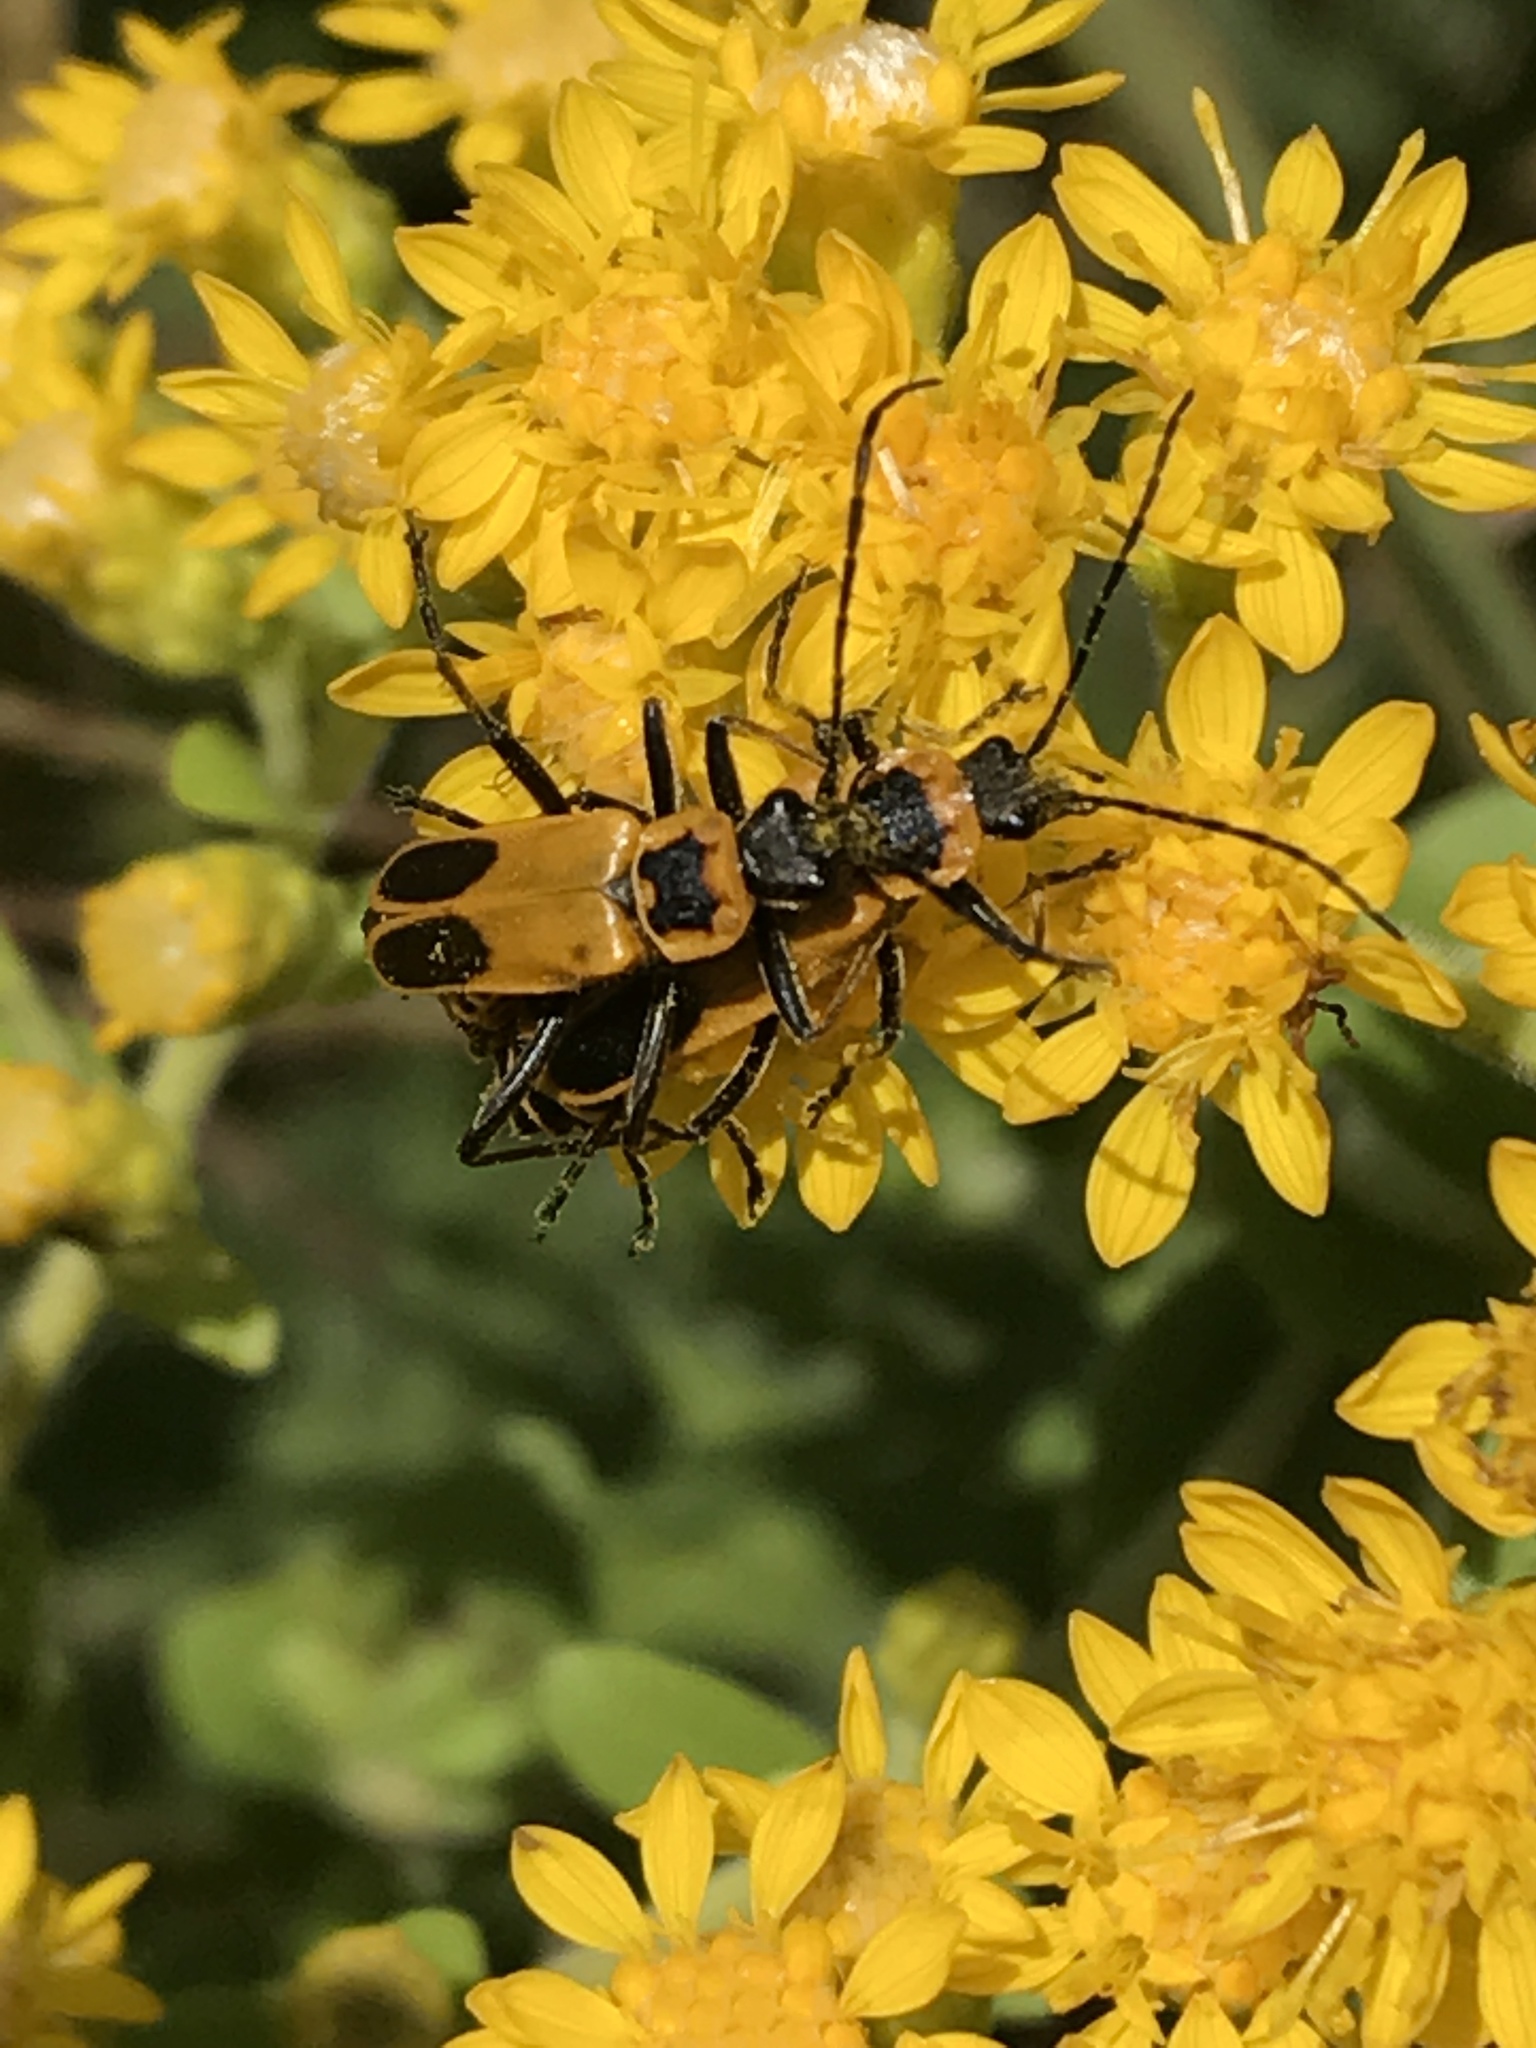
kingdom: Animalia
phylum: Arthropoda
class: Insecta
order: Coleoptera
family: Cantharidae
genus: Chauliognathus
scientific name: Chauliognathus pensylvanicus
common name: Goldenrod soldier beetle
